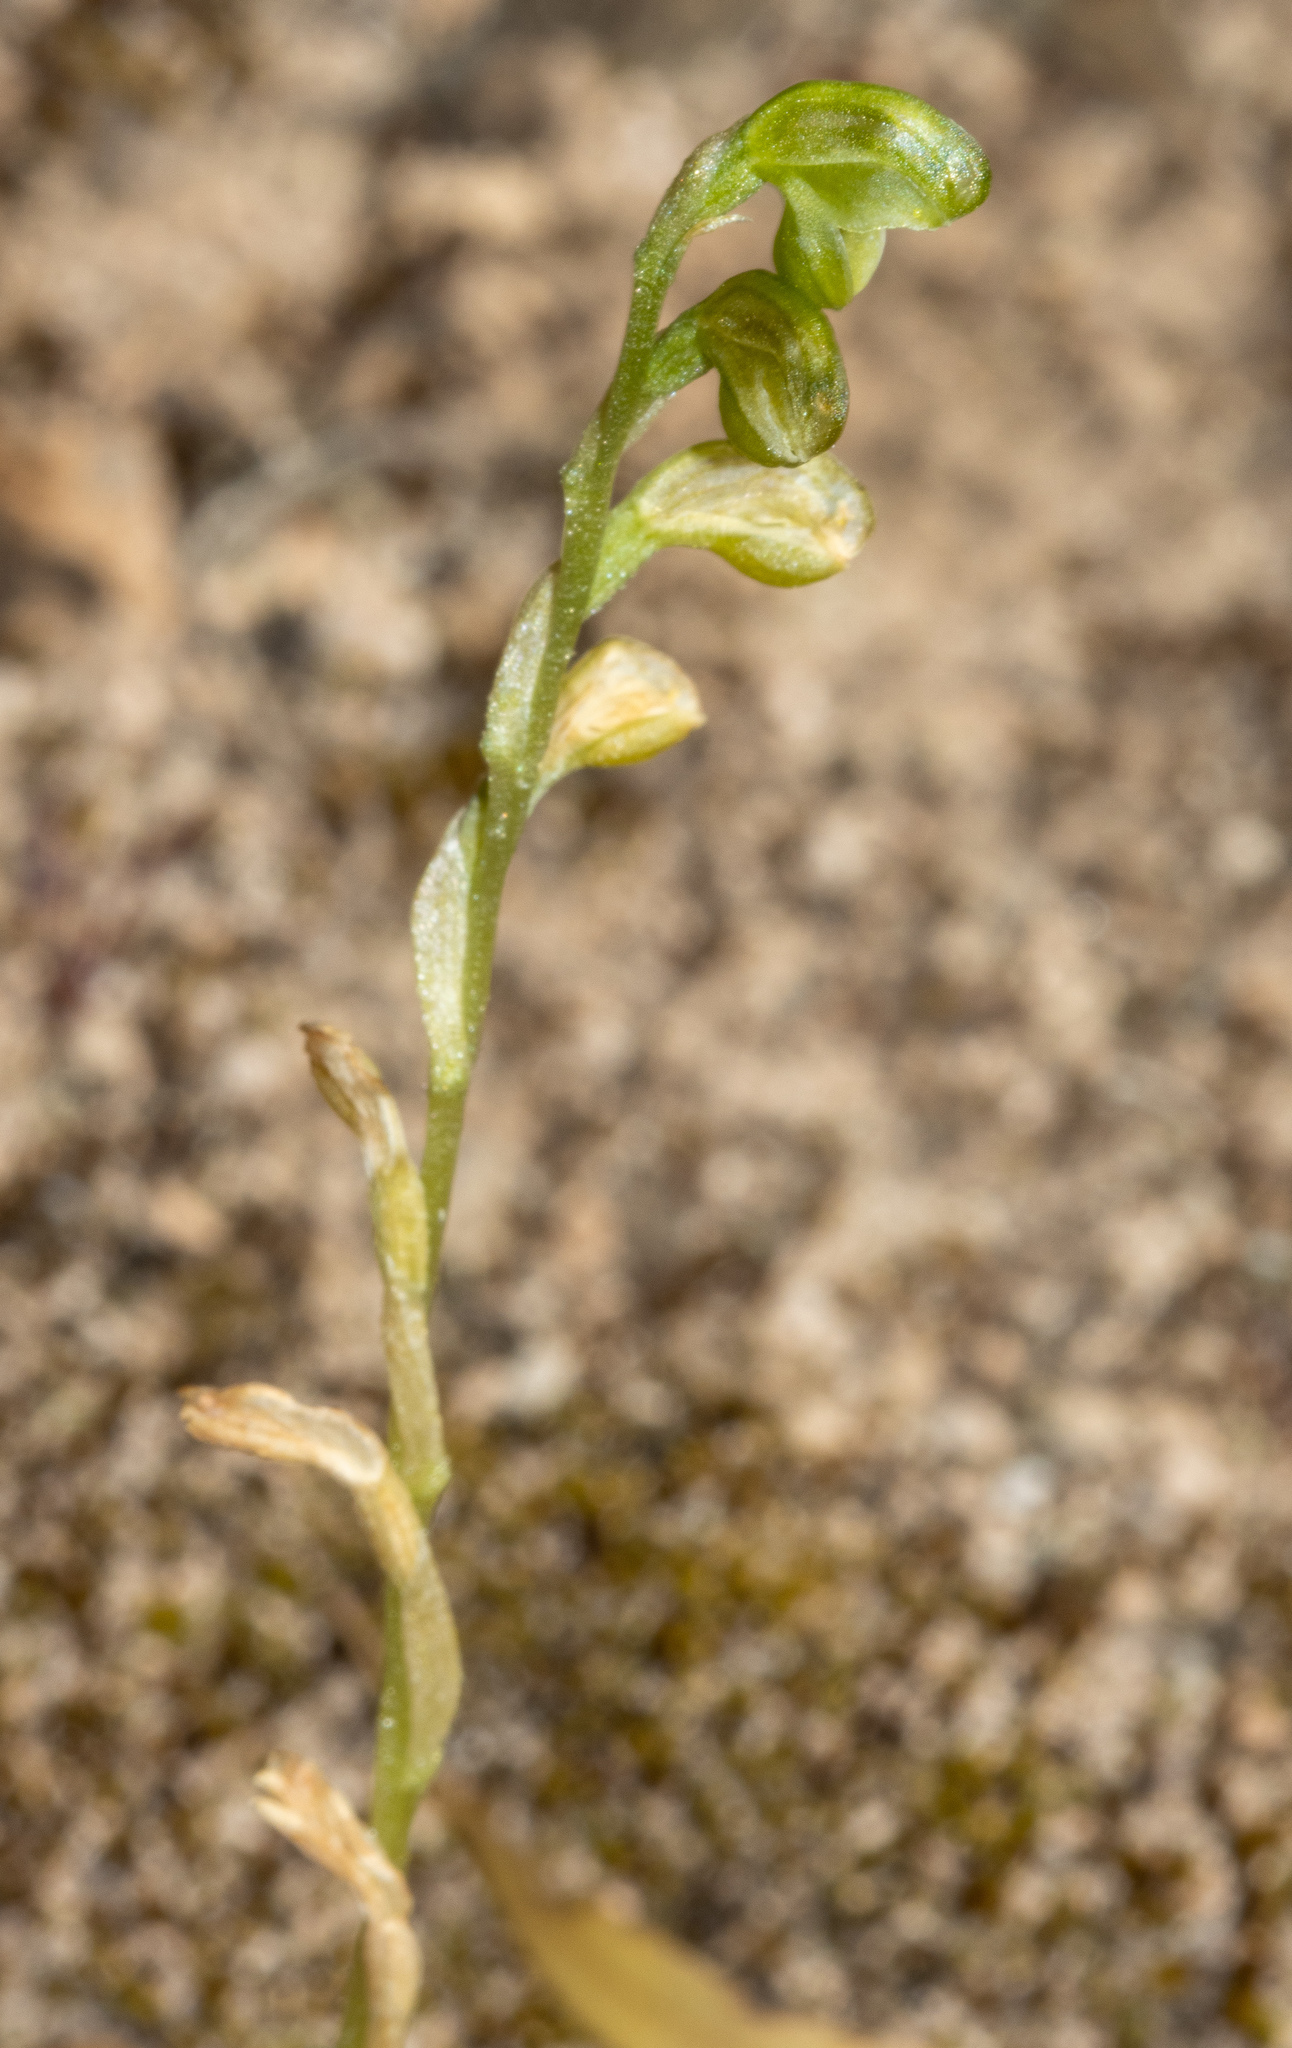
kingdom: Plantae
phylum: Tracheophyta
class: Liliopsida
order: Asparagales
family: Orchidaceae
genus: Pterostylis
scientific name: Pterostylis mutica
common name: Midget greenhood
